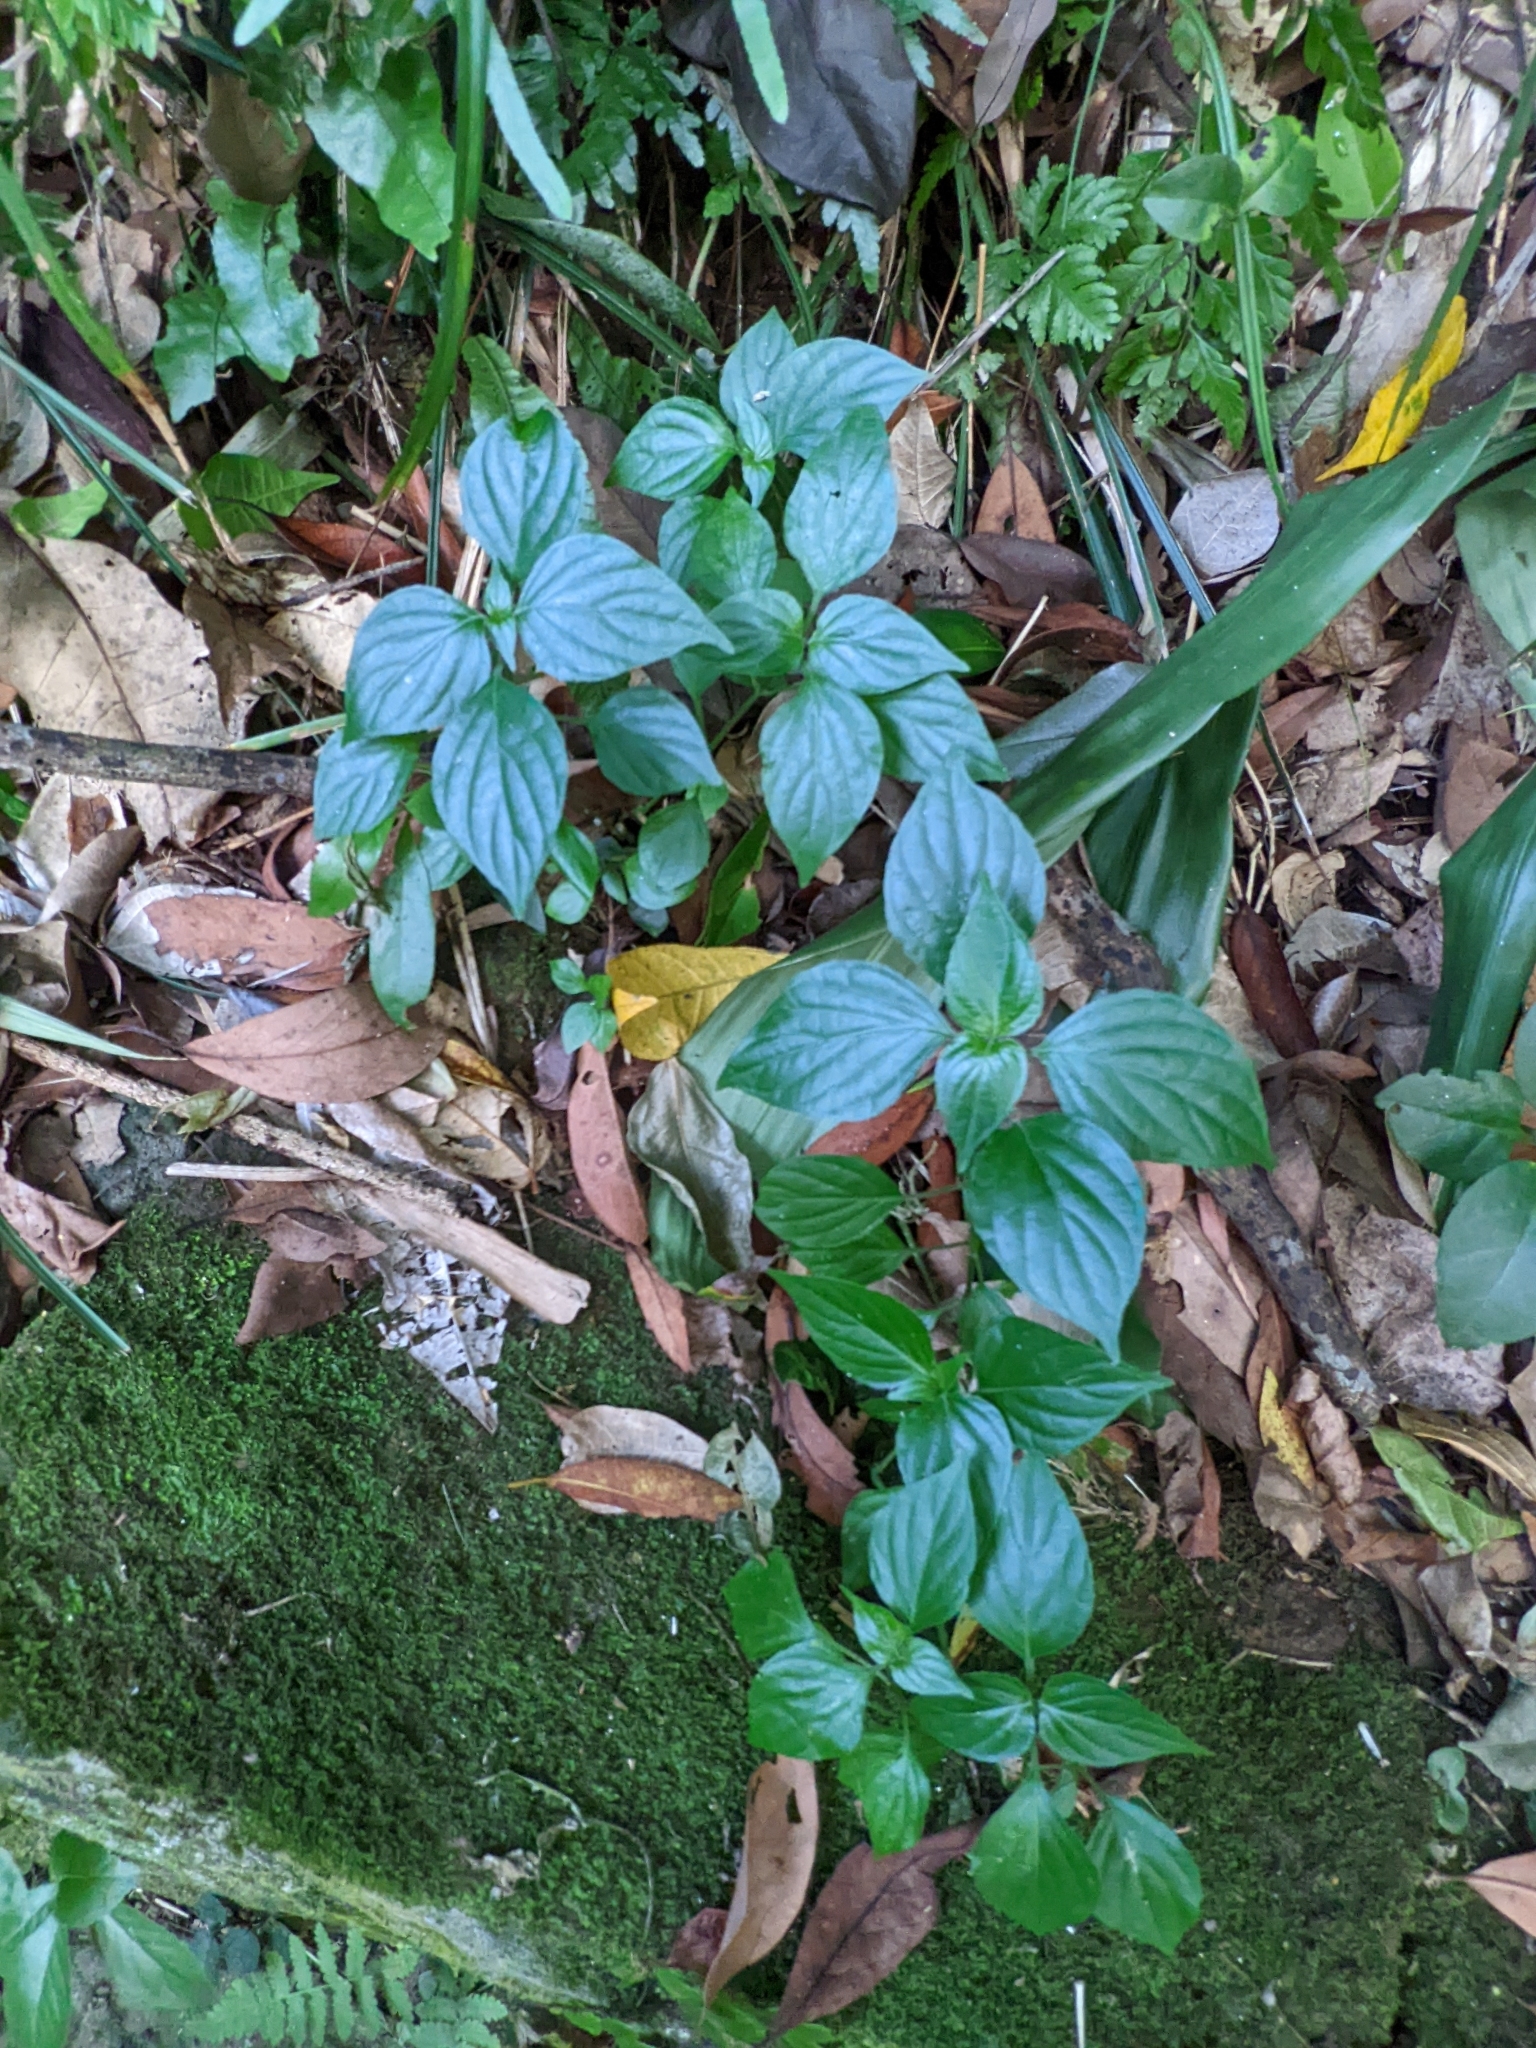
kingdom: Plantae
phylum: Tracheophyta
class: Magnoliopsida
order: Lamiales
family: Acanthaceae
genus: Dicliptera
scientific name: Dicliptera chinensis
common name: Chinese foldwing
